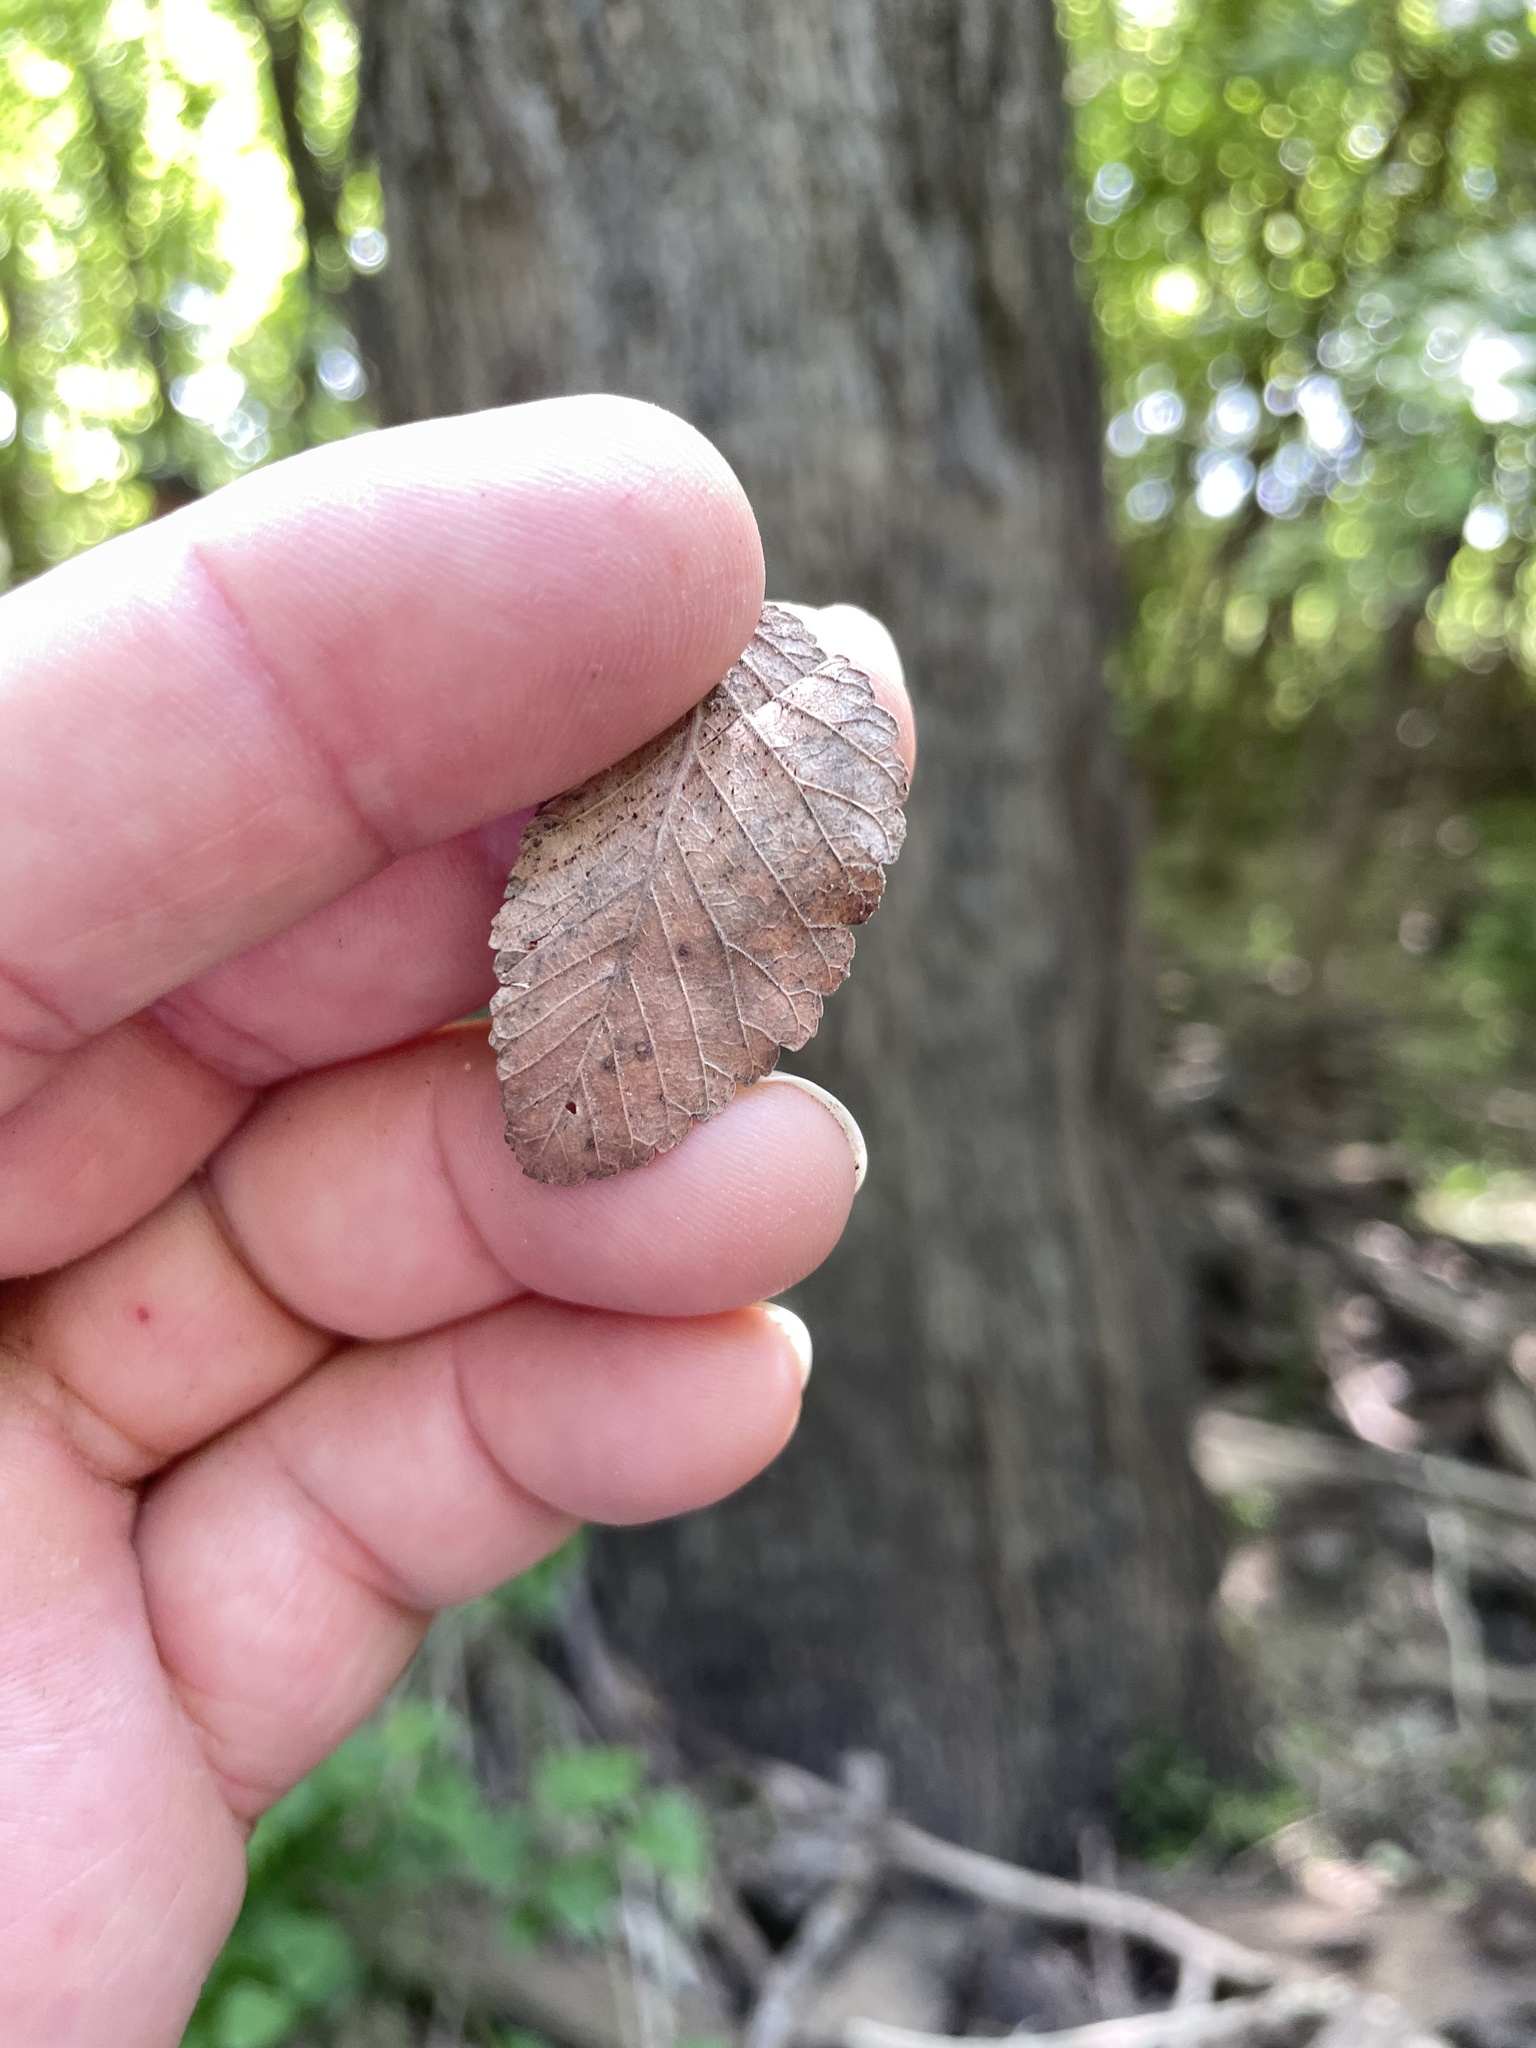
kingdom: Plantae
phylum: Tracheophyta
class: Magnoliopsida
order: Rosales
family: Ulmaceae
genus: Ulmus
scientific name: Ulmus crassifolia
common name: Basket elm
